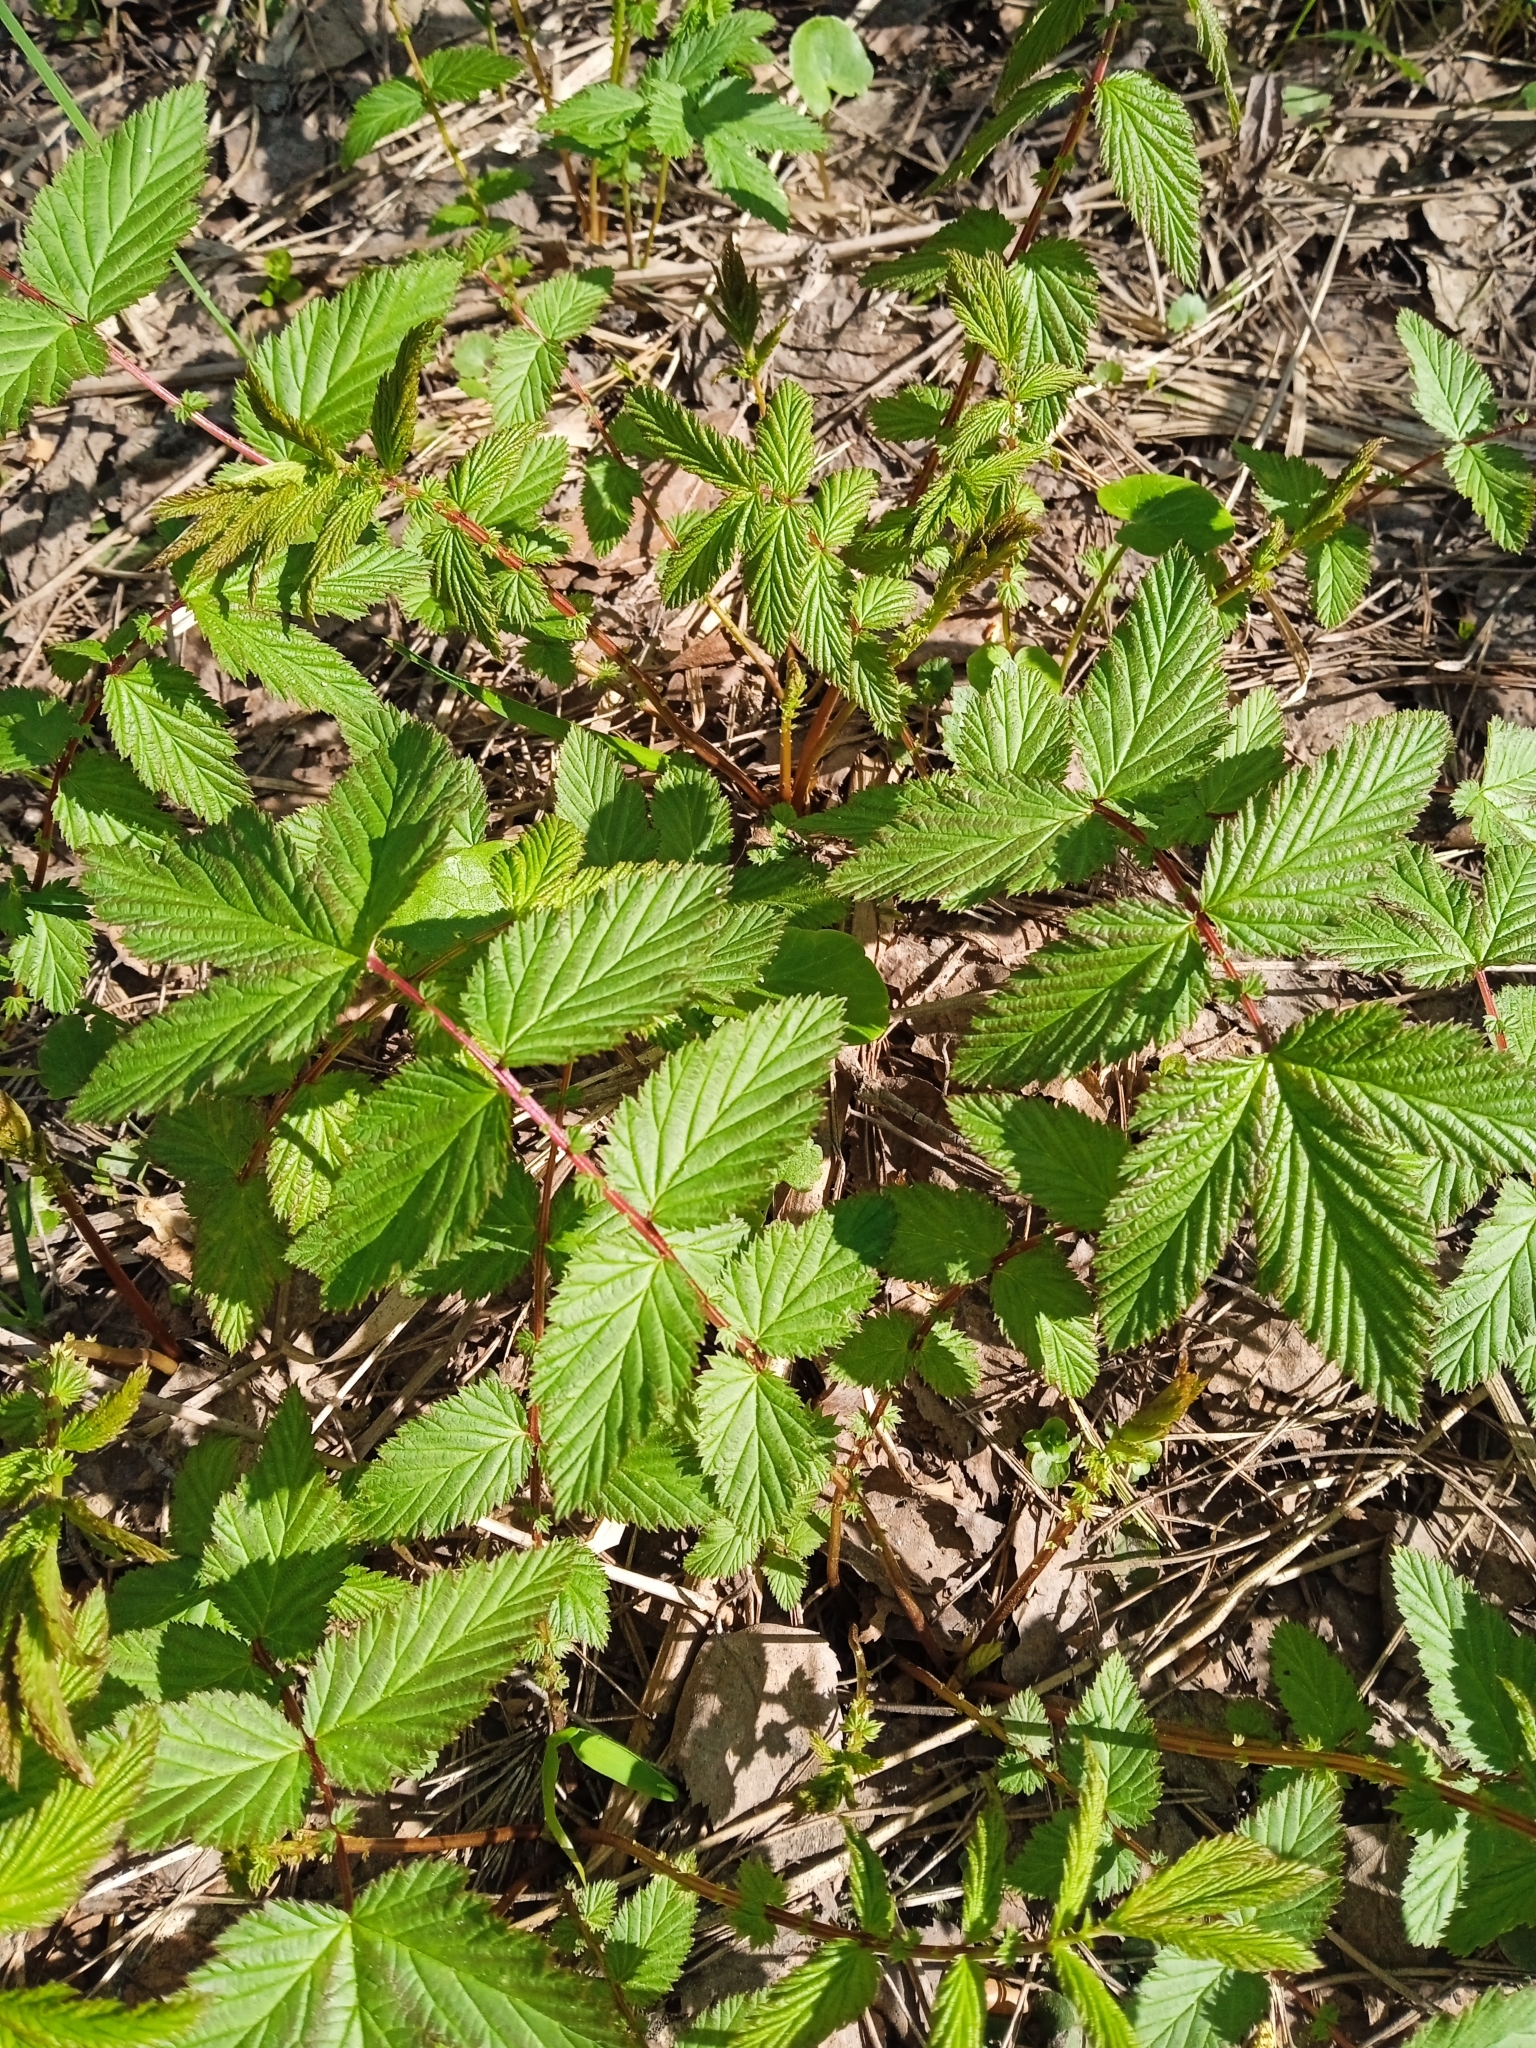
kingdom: Plantae
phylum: Tracheophyta
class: Magnoliopsida
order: Rosales
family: Rosaceae
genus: Filipendula
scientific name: Filipendula ulmaria
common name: Meadowsweet
